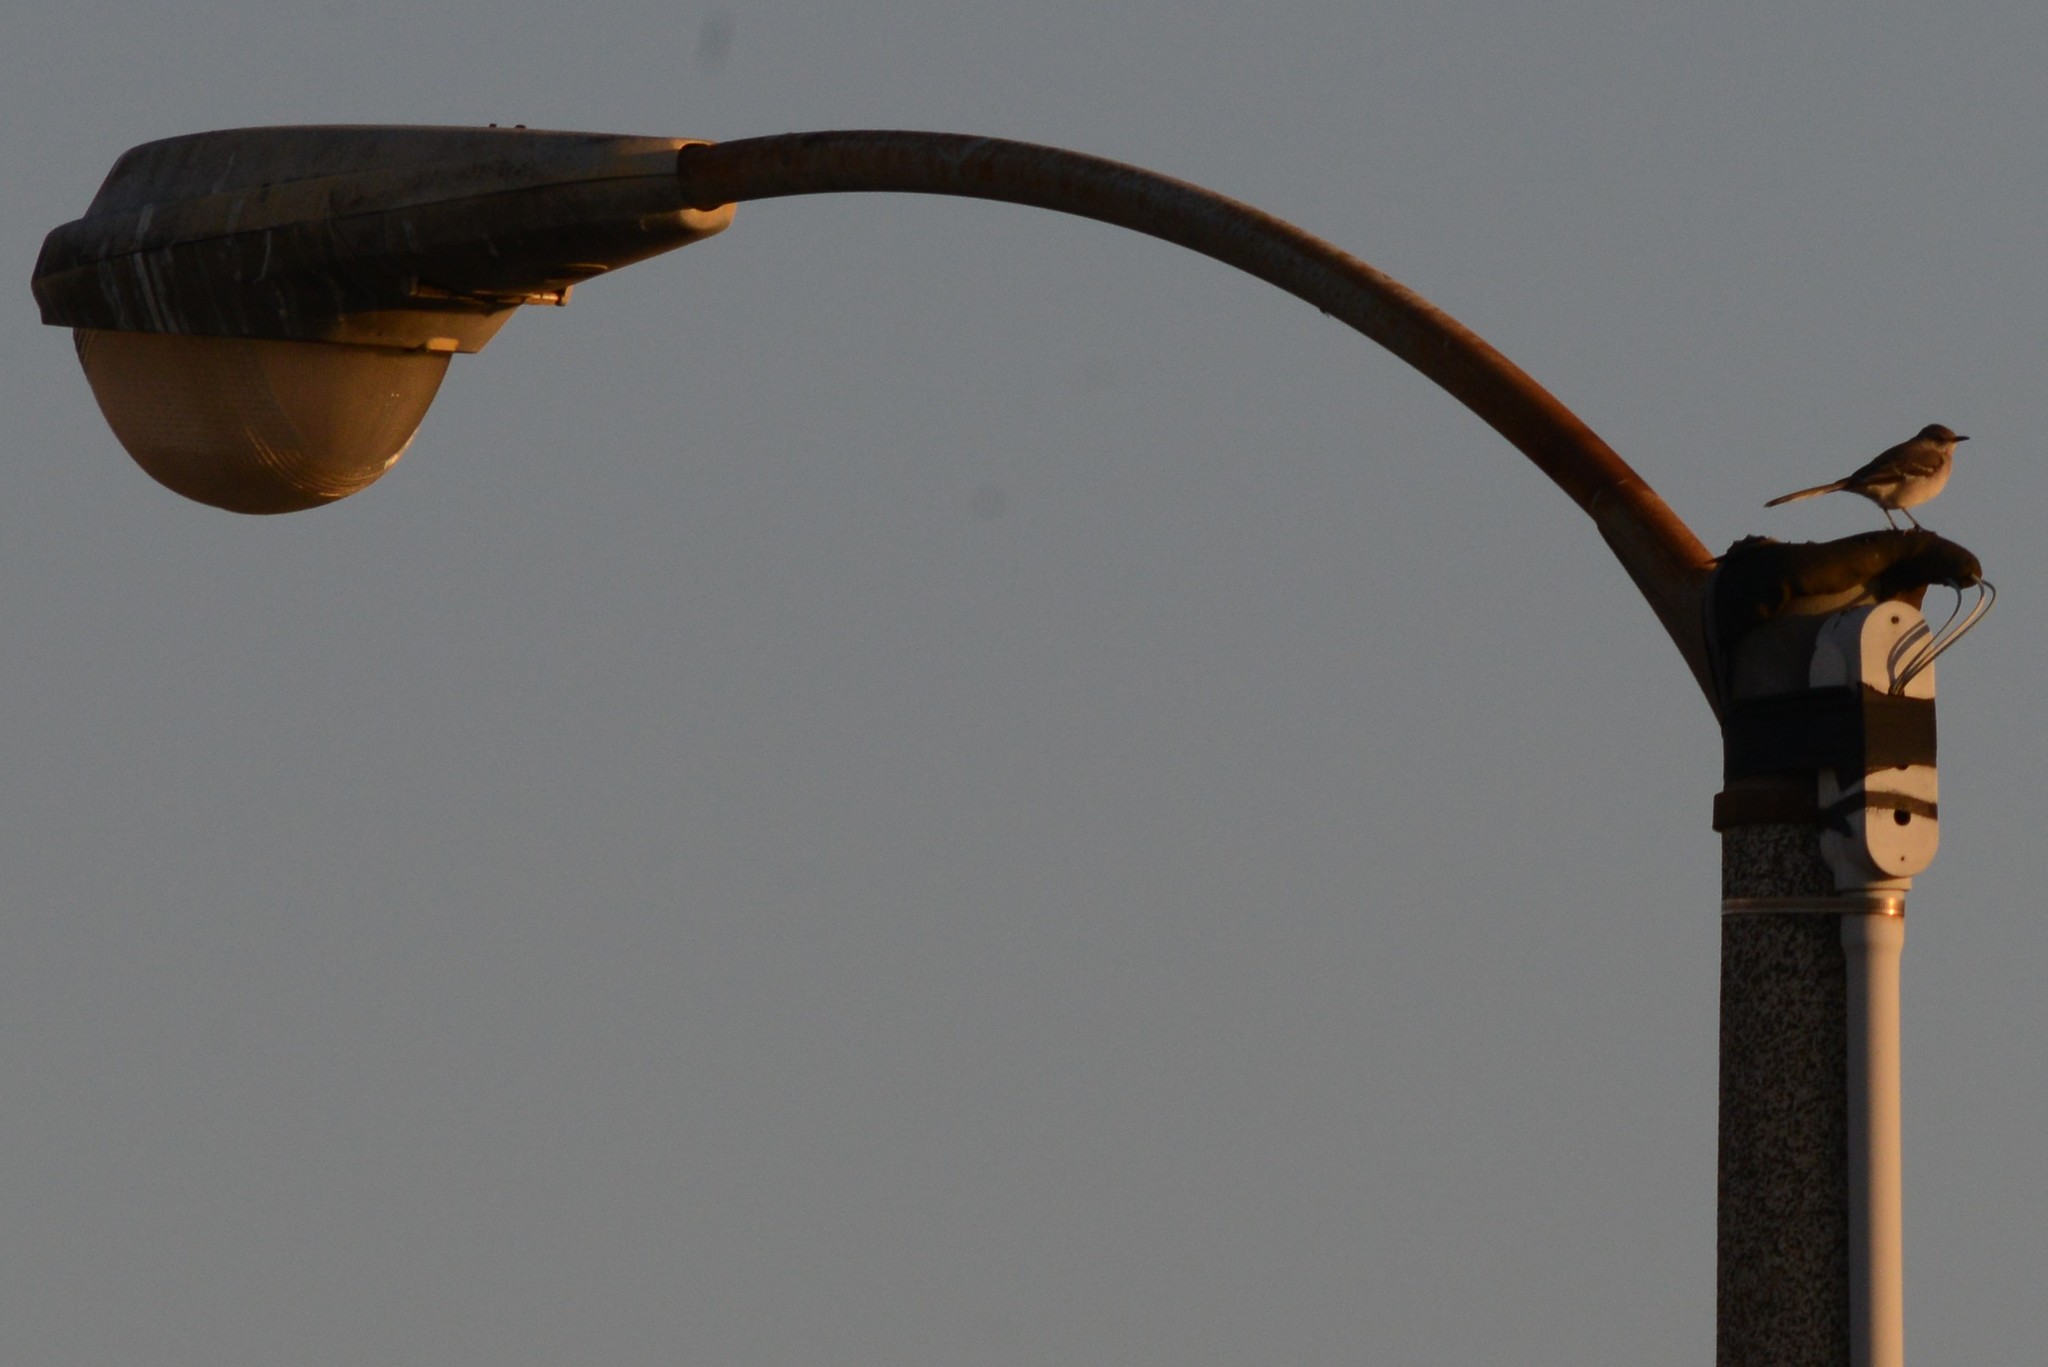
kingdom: Animalia
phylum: Chordata
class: Aves
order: Passeriformes
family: Mimidae
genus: Mimus
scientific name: Mimus polyglottos
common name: Northern mockingbird
